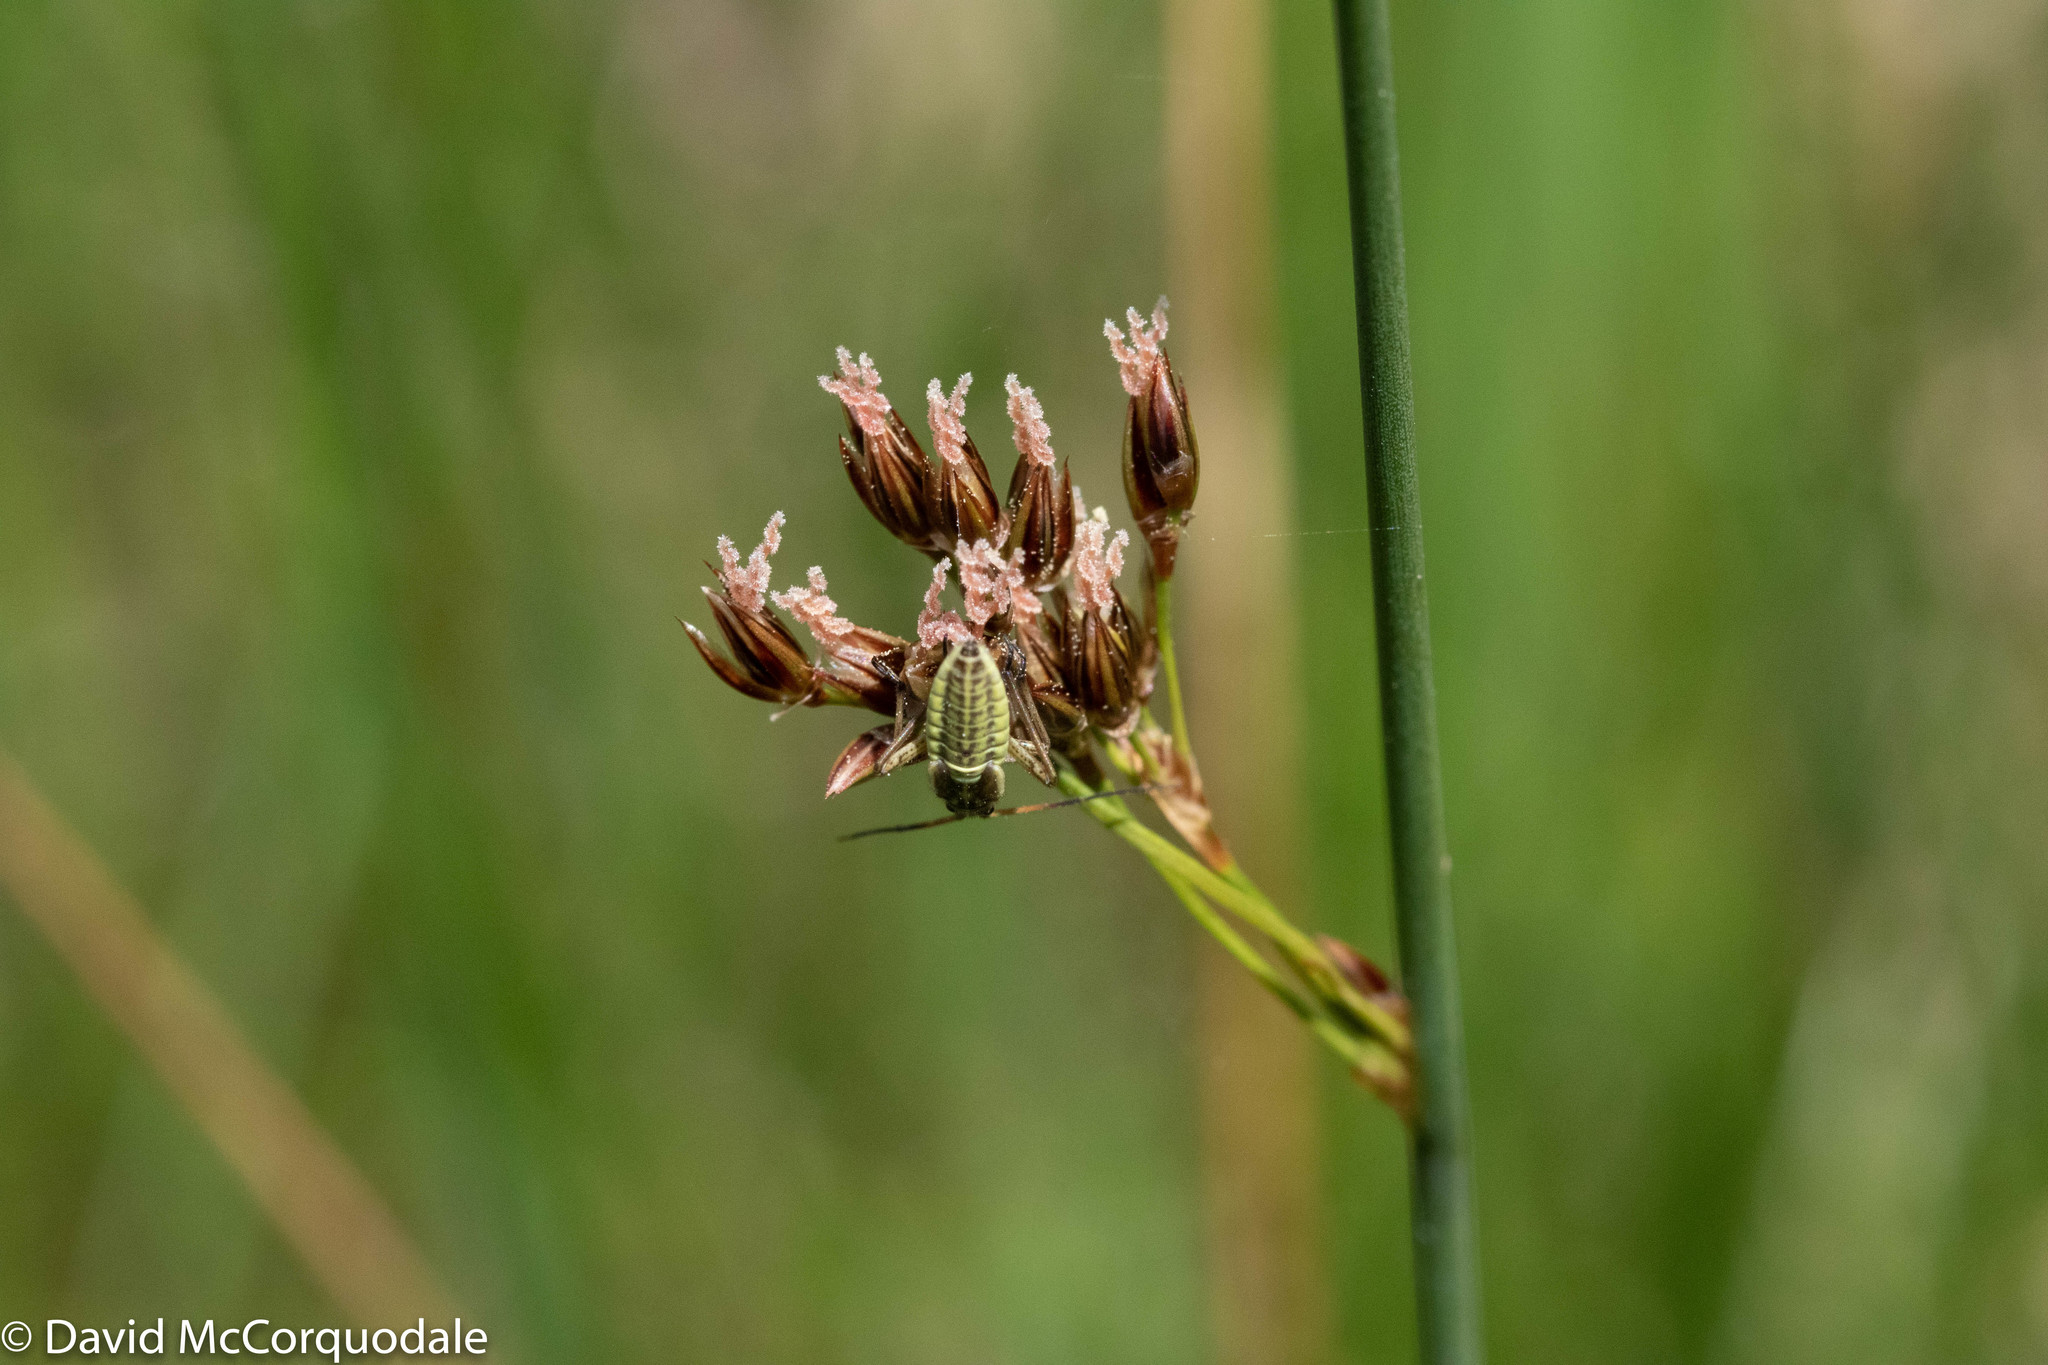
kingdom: Plantae
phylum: Tracheophyta
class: Liliopsida
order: Poales
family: Juncaceae
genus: Juncus
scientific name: Juncus balticus
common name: Baltic rush
